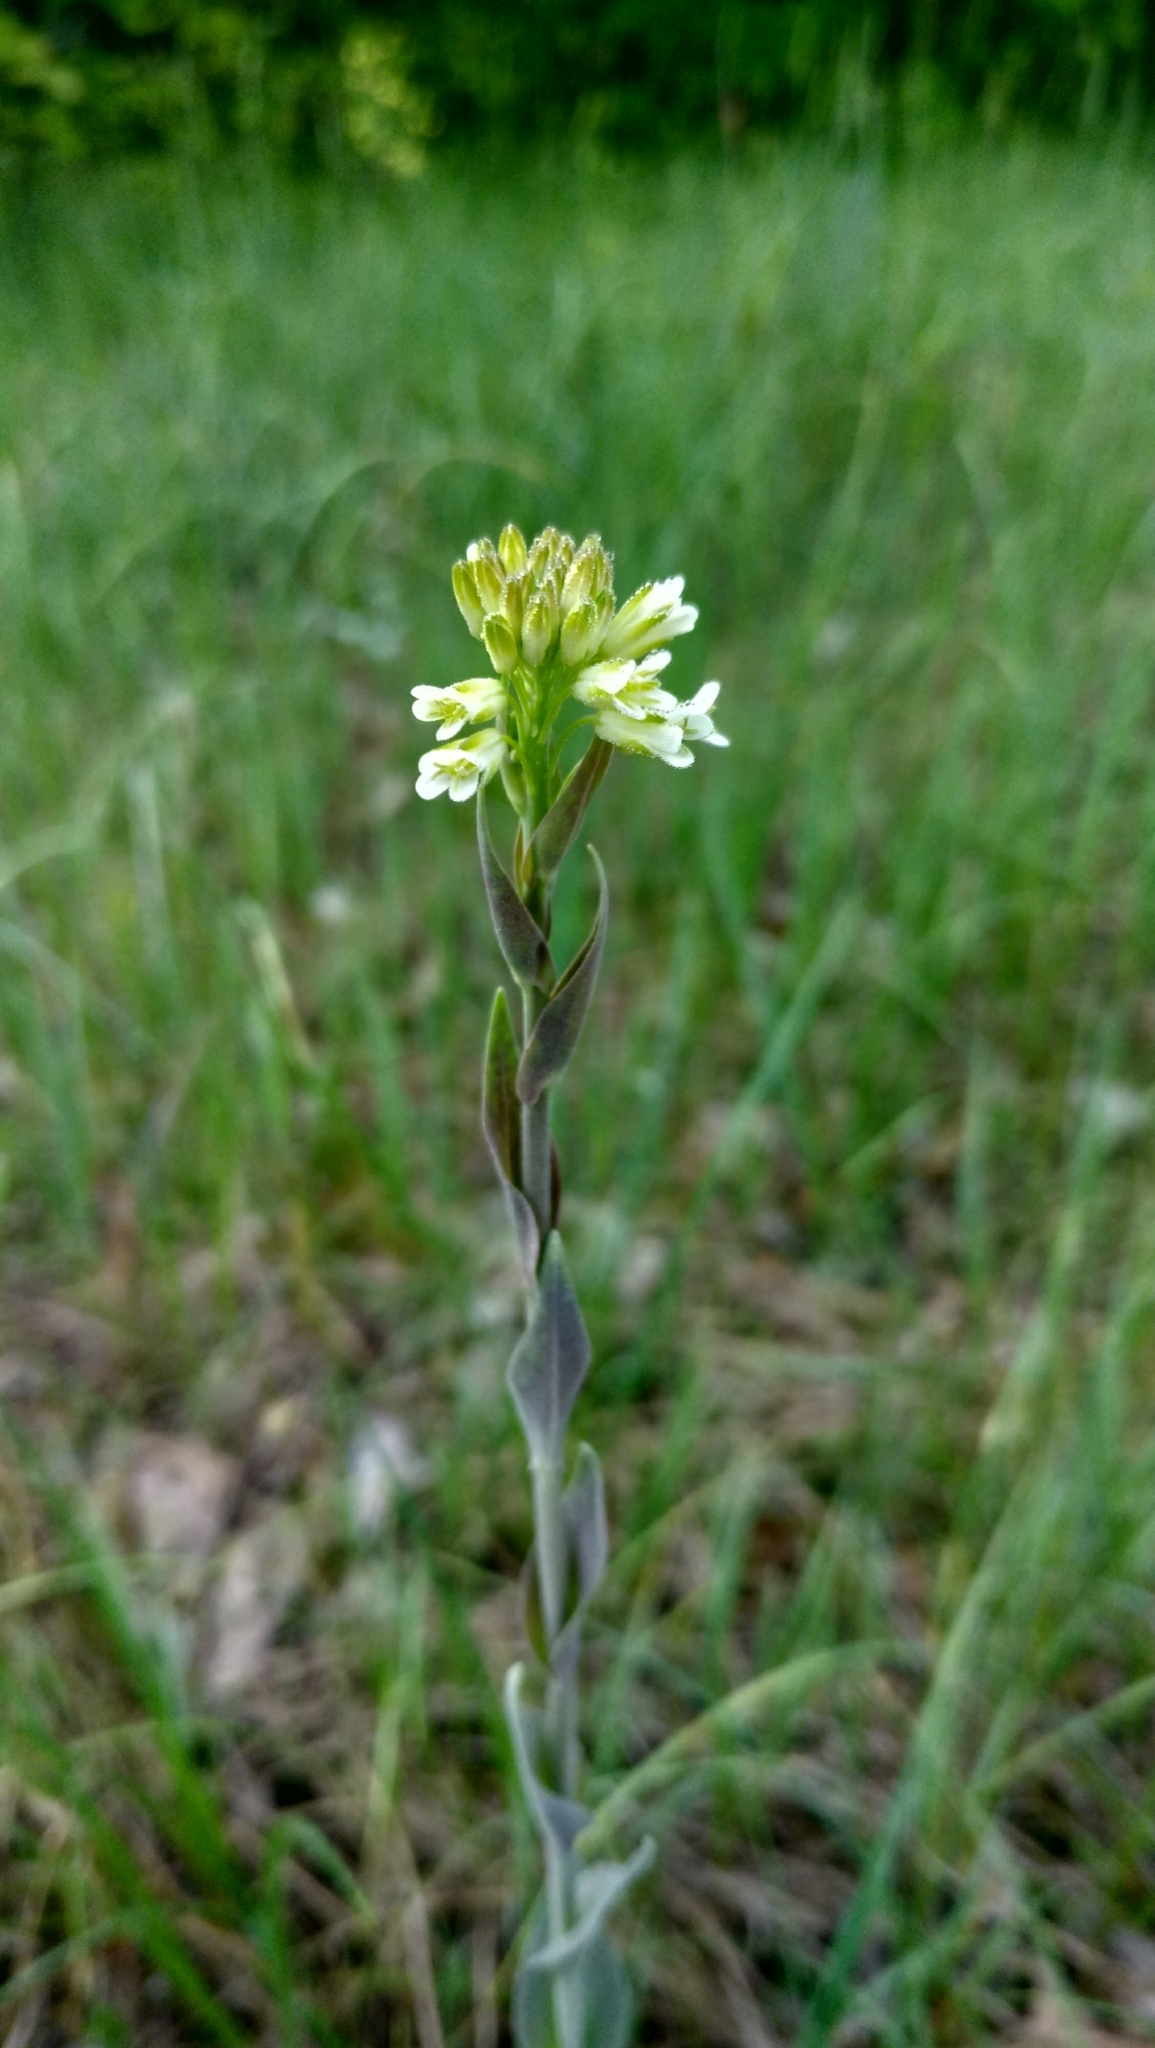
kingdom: Plantae
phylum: Tracheophyta
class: Magnoliopsida
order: Brassicales
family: Brassicaceae
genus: Turritis
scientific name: Turritis glabra
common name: Tower rockcress
